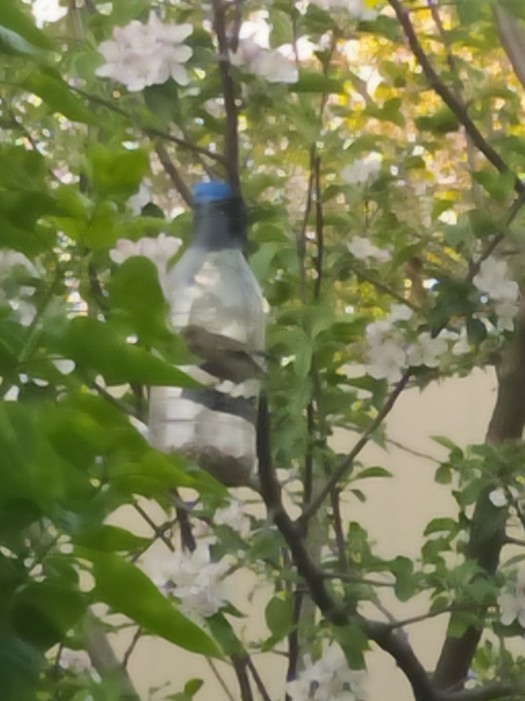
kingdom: Plantae
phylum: Tracheophyta
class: Liliopsida
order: Poales
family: Poaceae
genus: Chloris
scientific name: Chloris chloris
